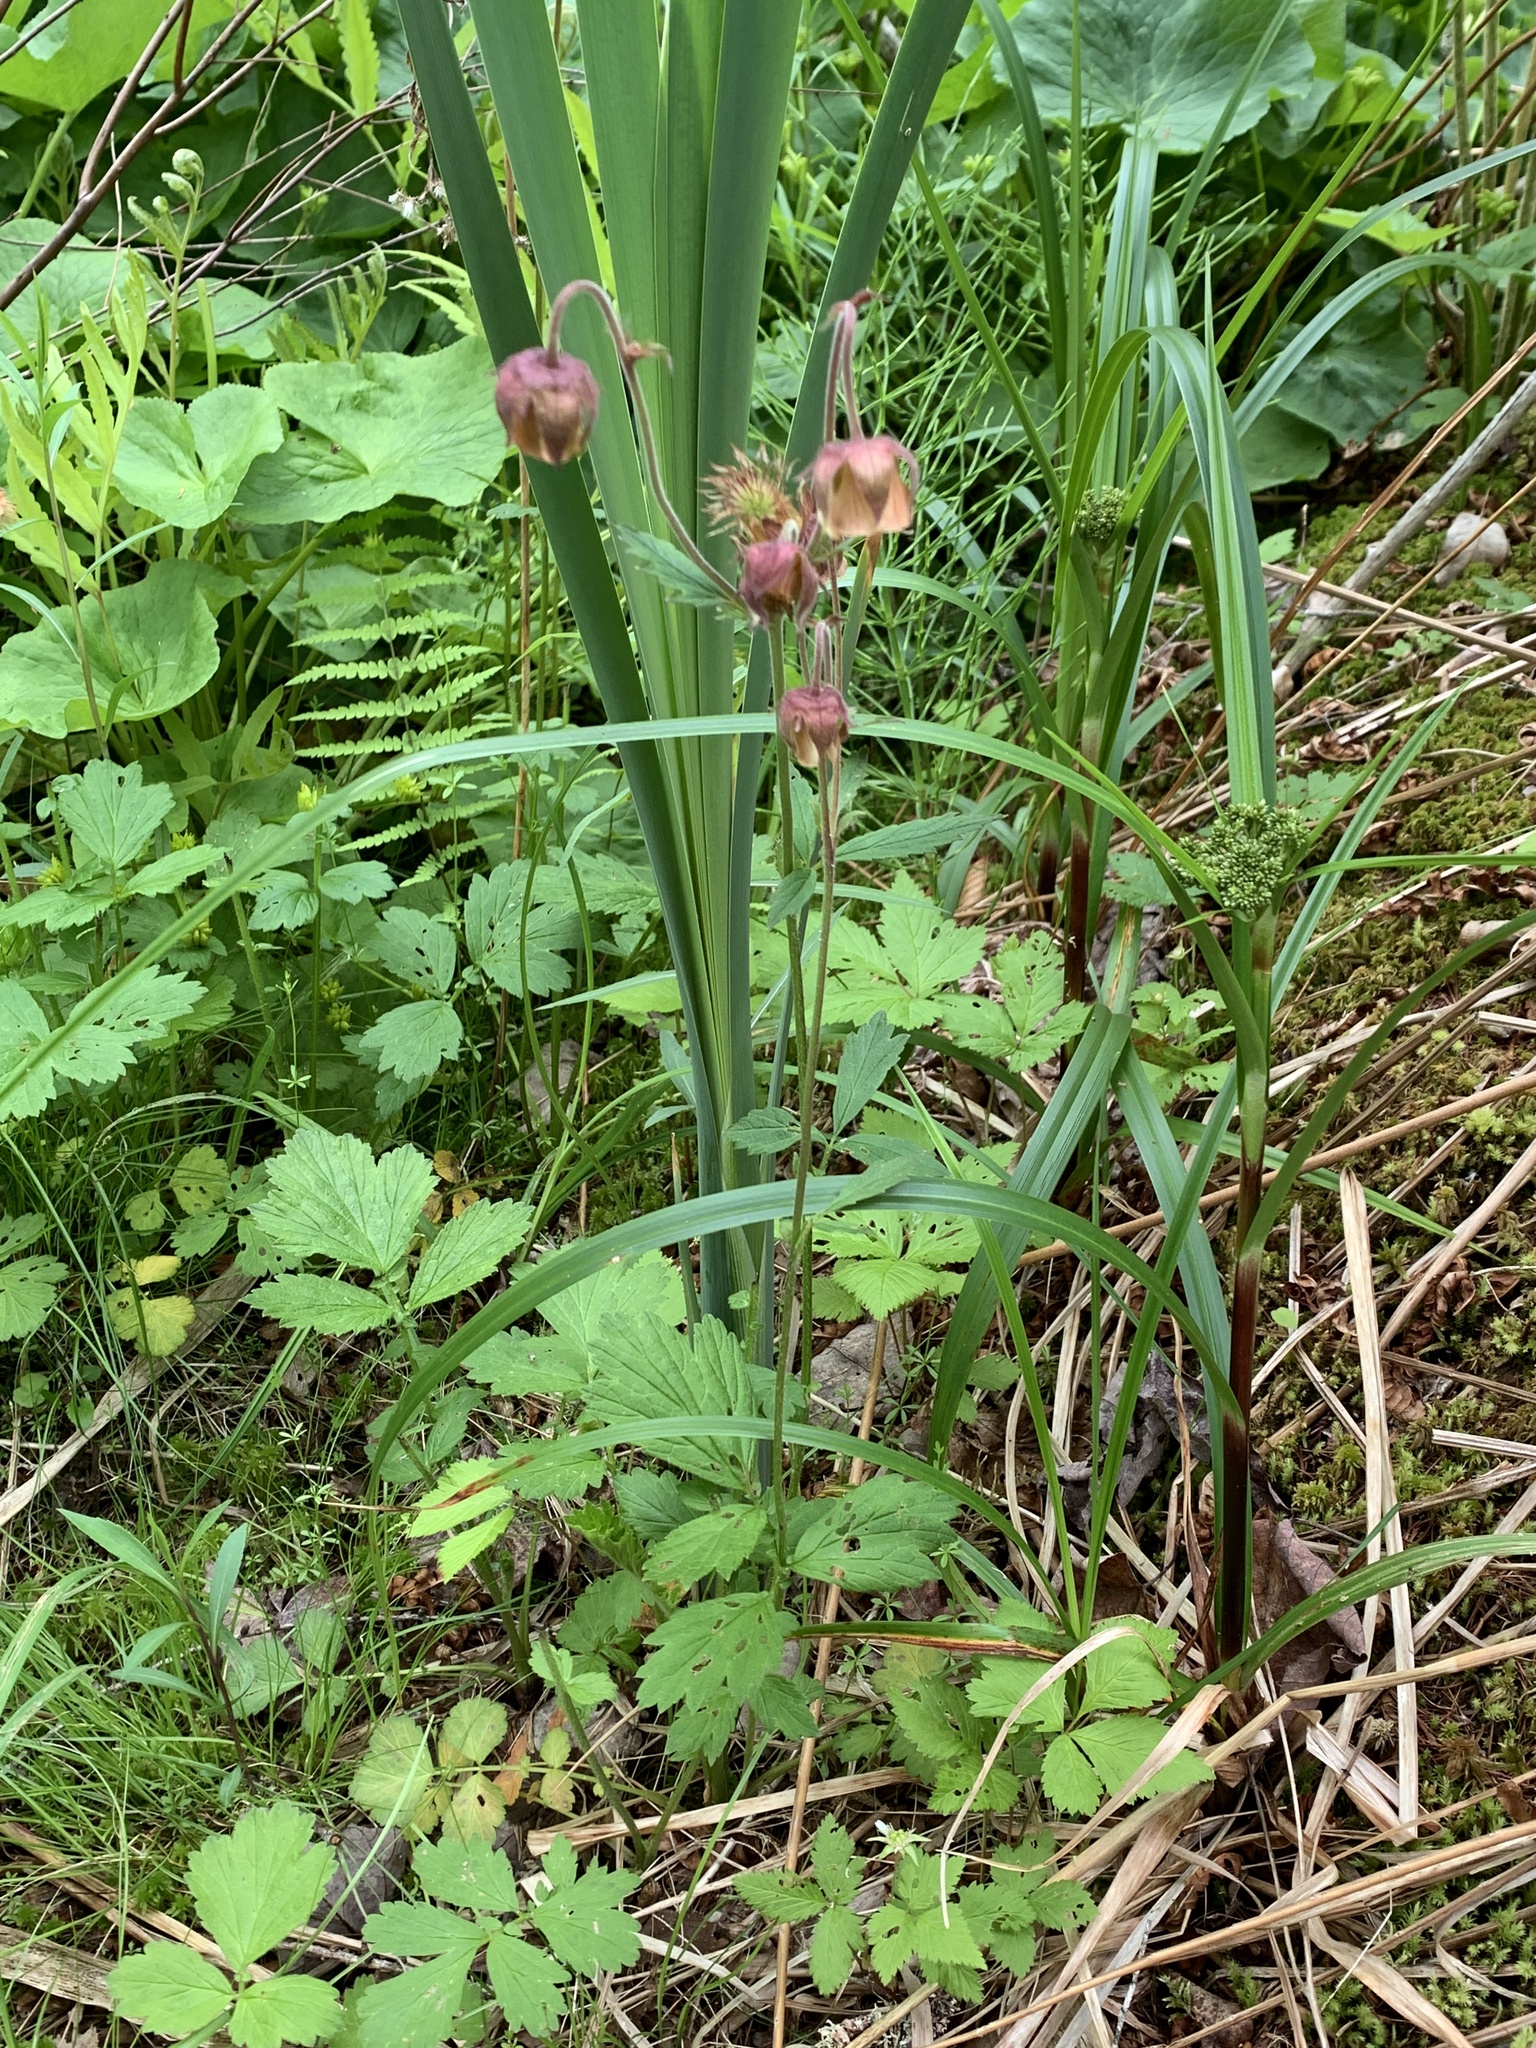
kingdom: Plantae
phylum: Tracheophyta
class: Magnoliopsida
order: Rosales
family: Rosaceae
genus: Geum
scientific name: Geum rivale
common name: Water avens
